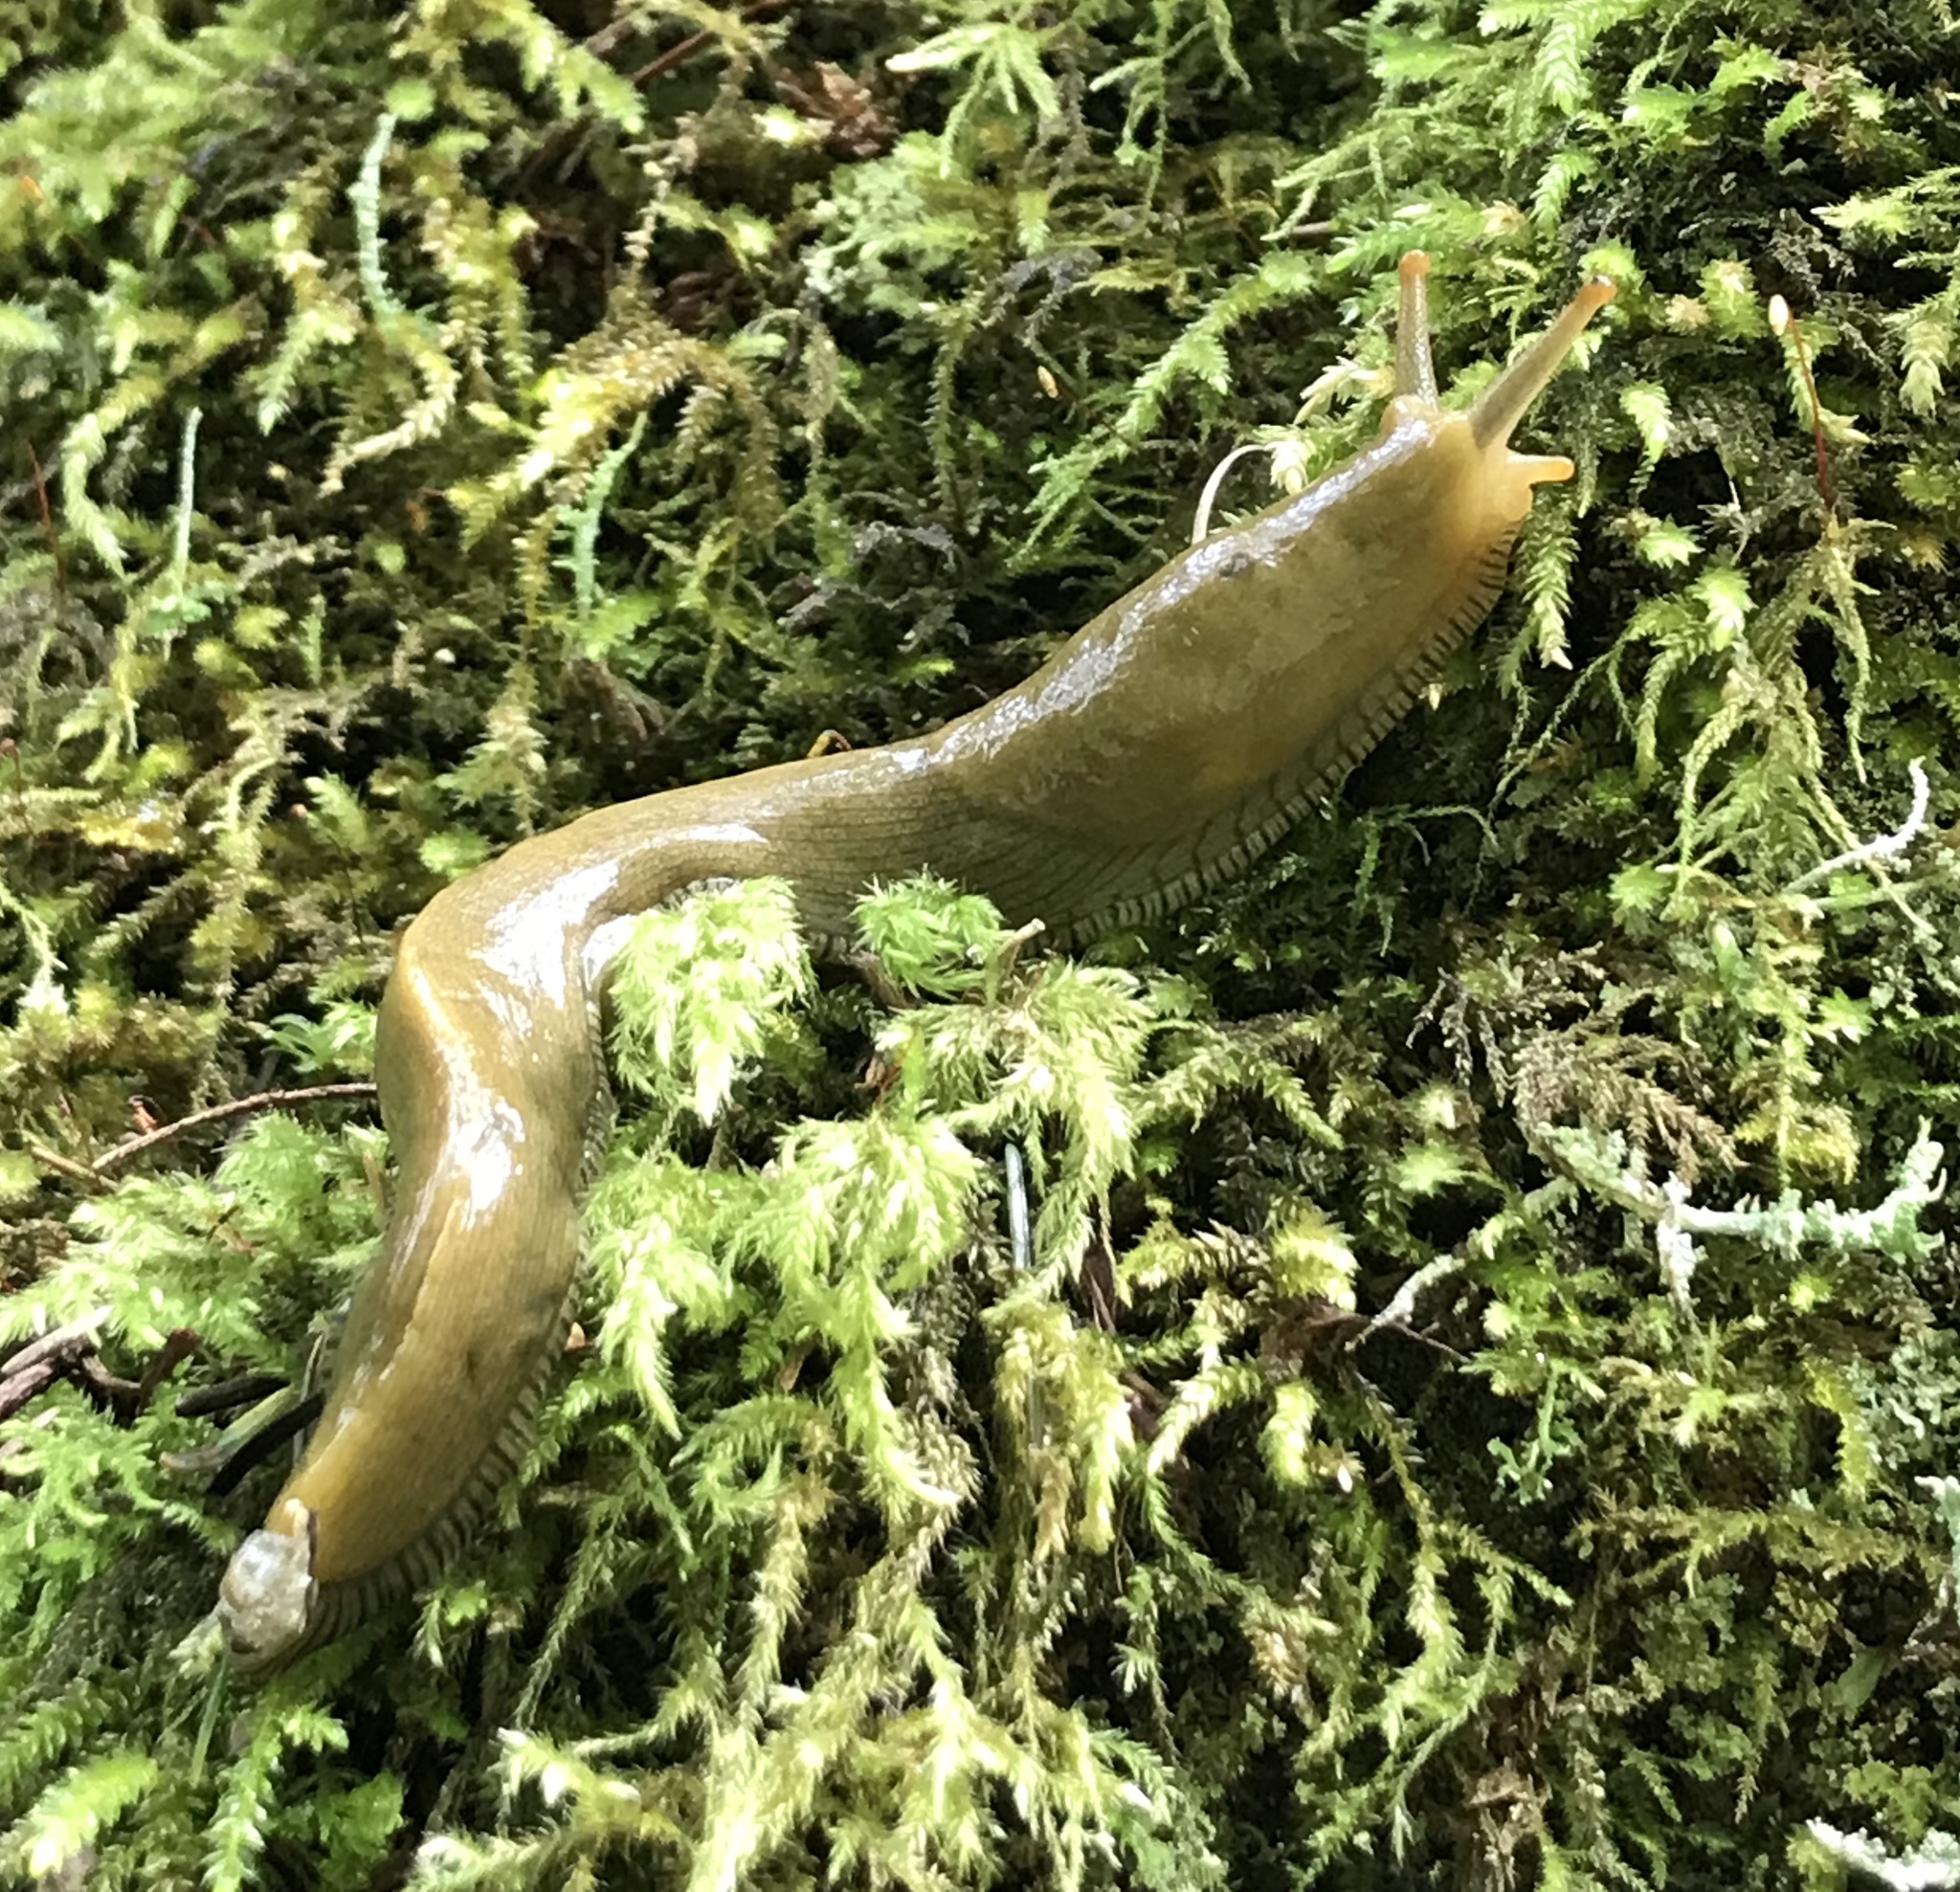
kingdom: Animalia
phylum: Mollusca
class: Gastropoda
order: Stylommatophora
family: Ariolimacidae
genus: Ariolimax
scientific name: Ariolimax buttoni
